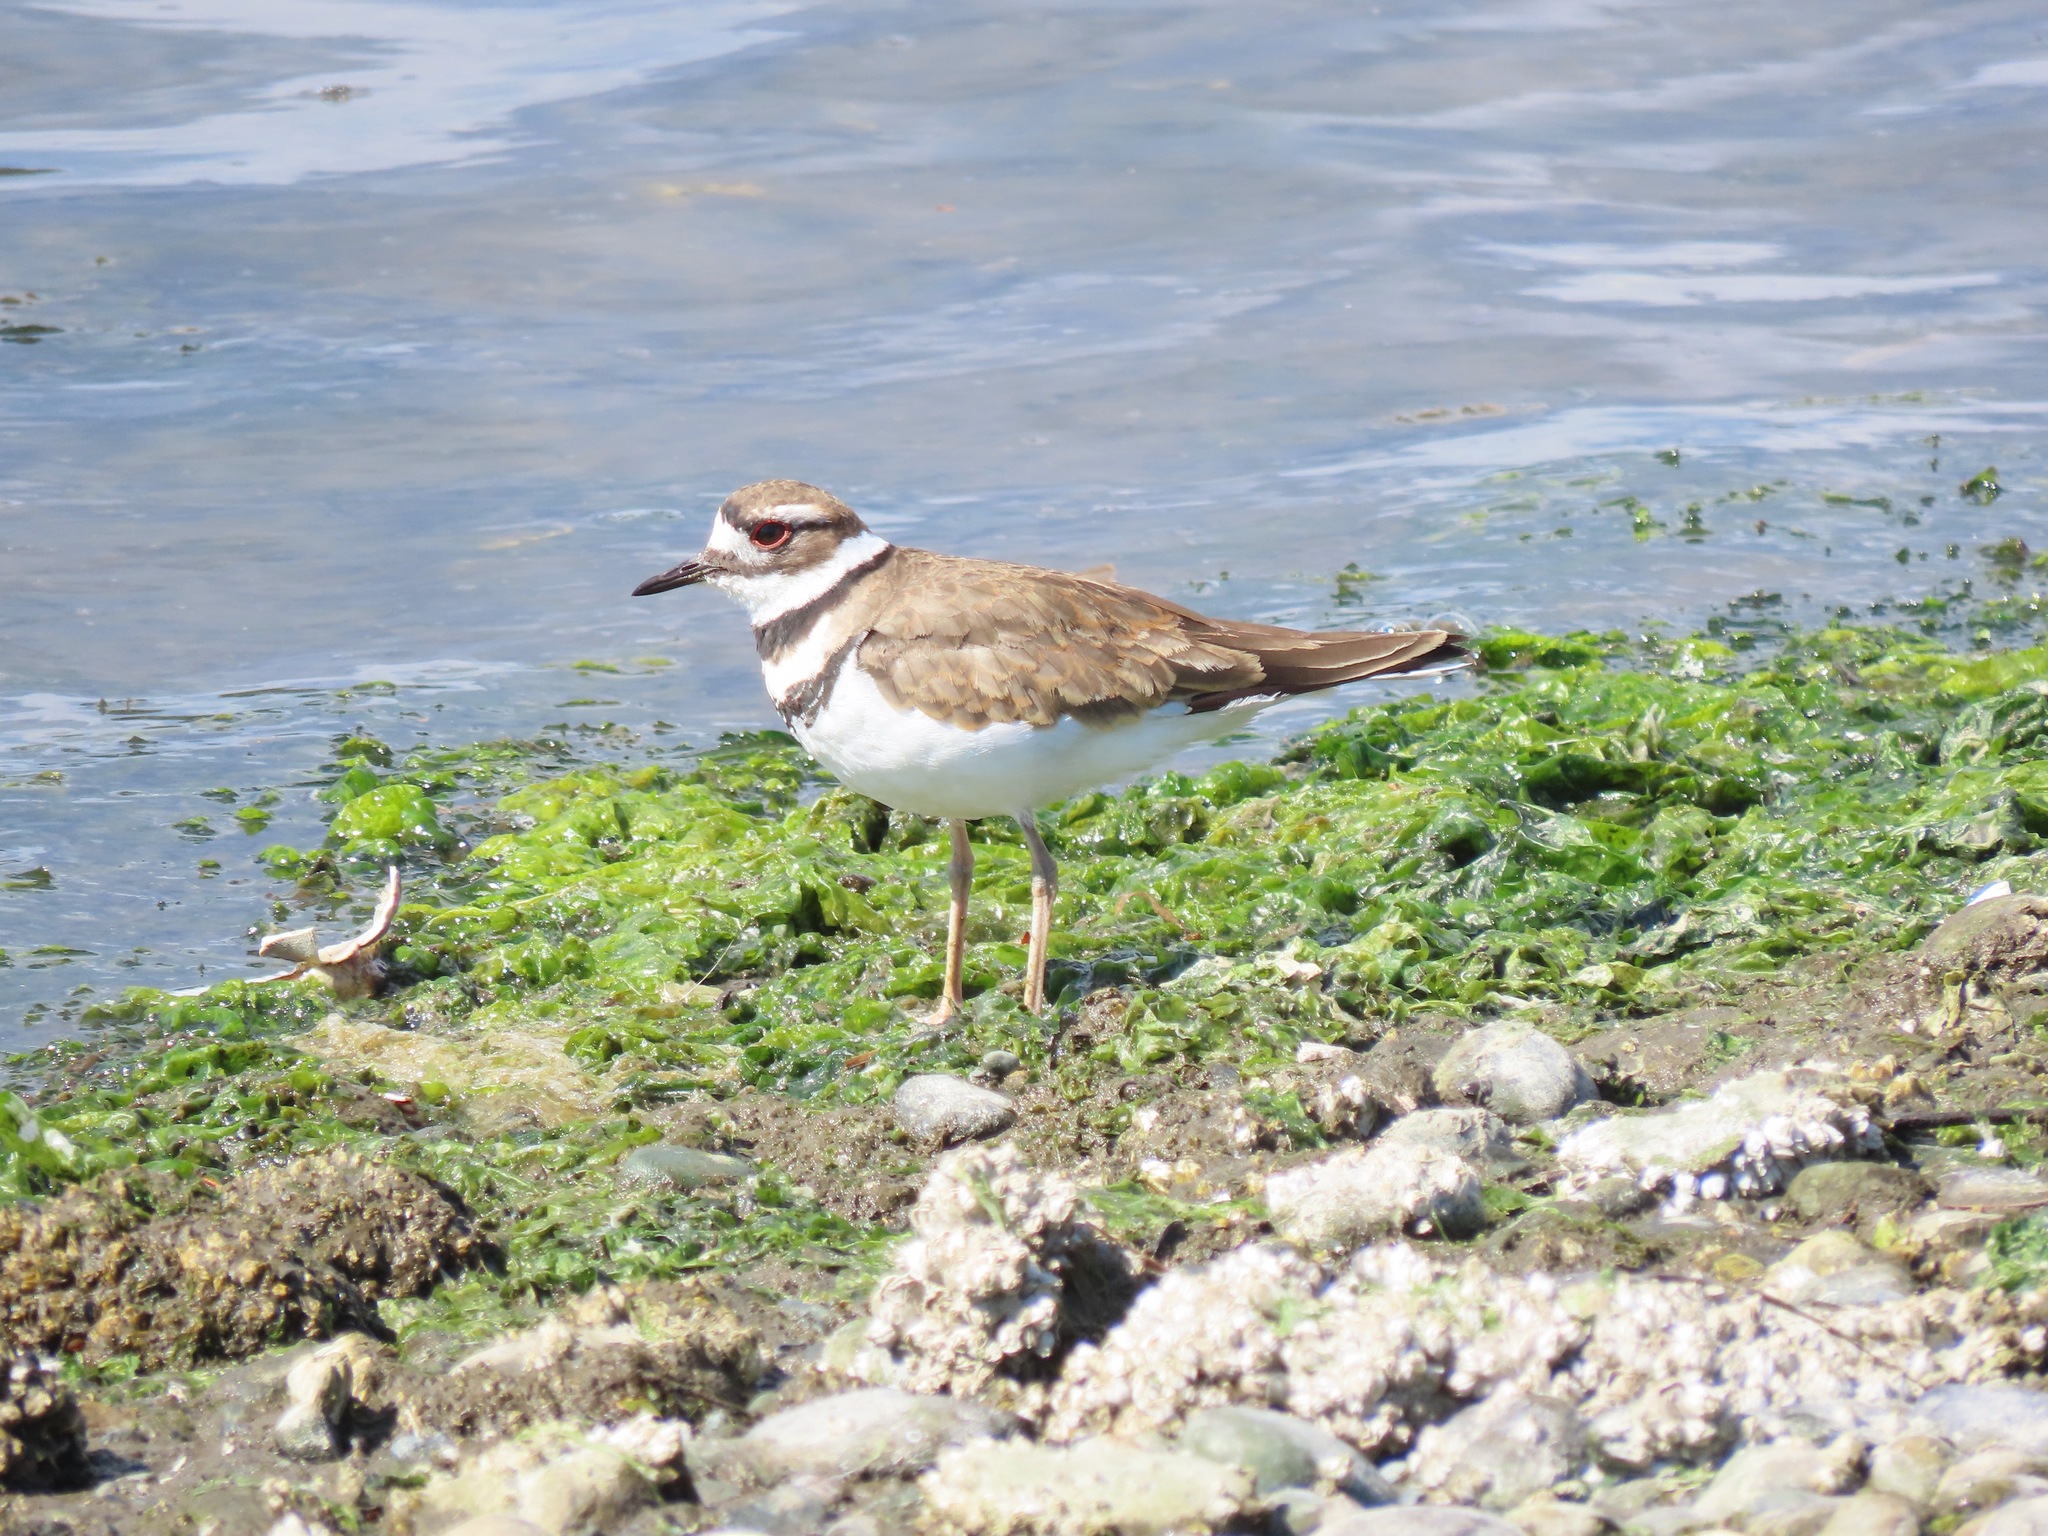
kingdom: Animalia
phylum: Chordata
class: Aves
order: Charadriiformes
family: Charadriidae
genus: Charadrius
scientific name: Charadrius vociferus
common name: Killdeer
